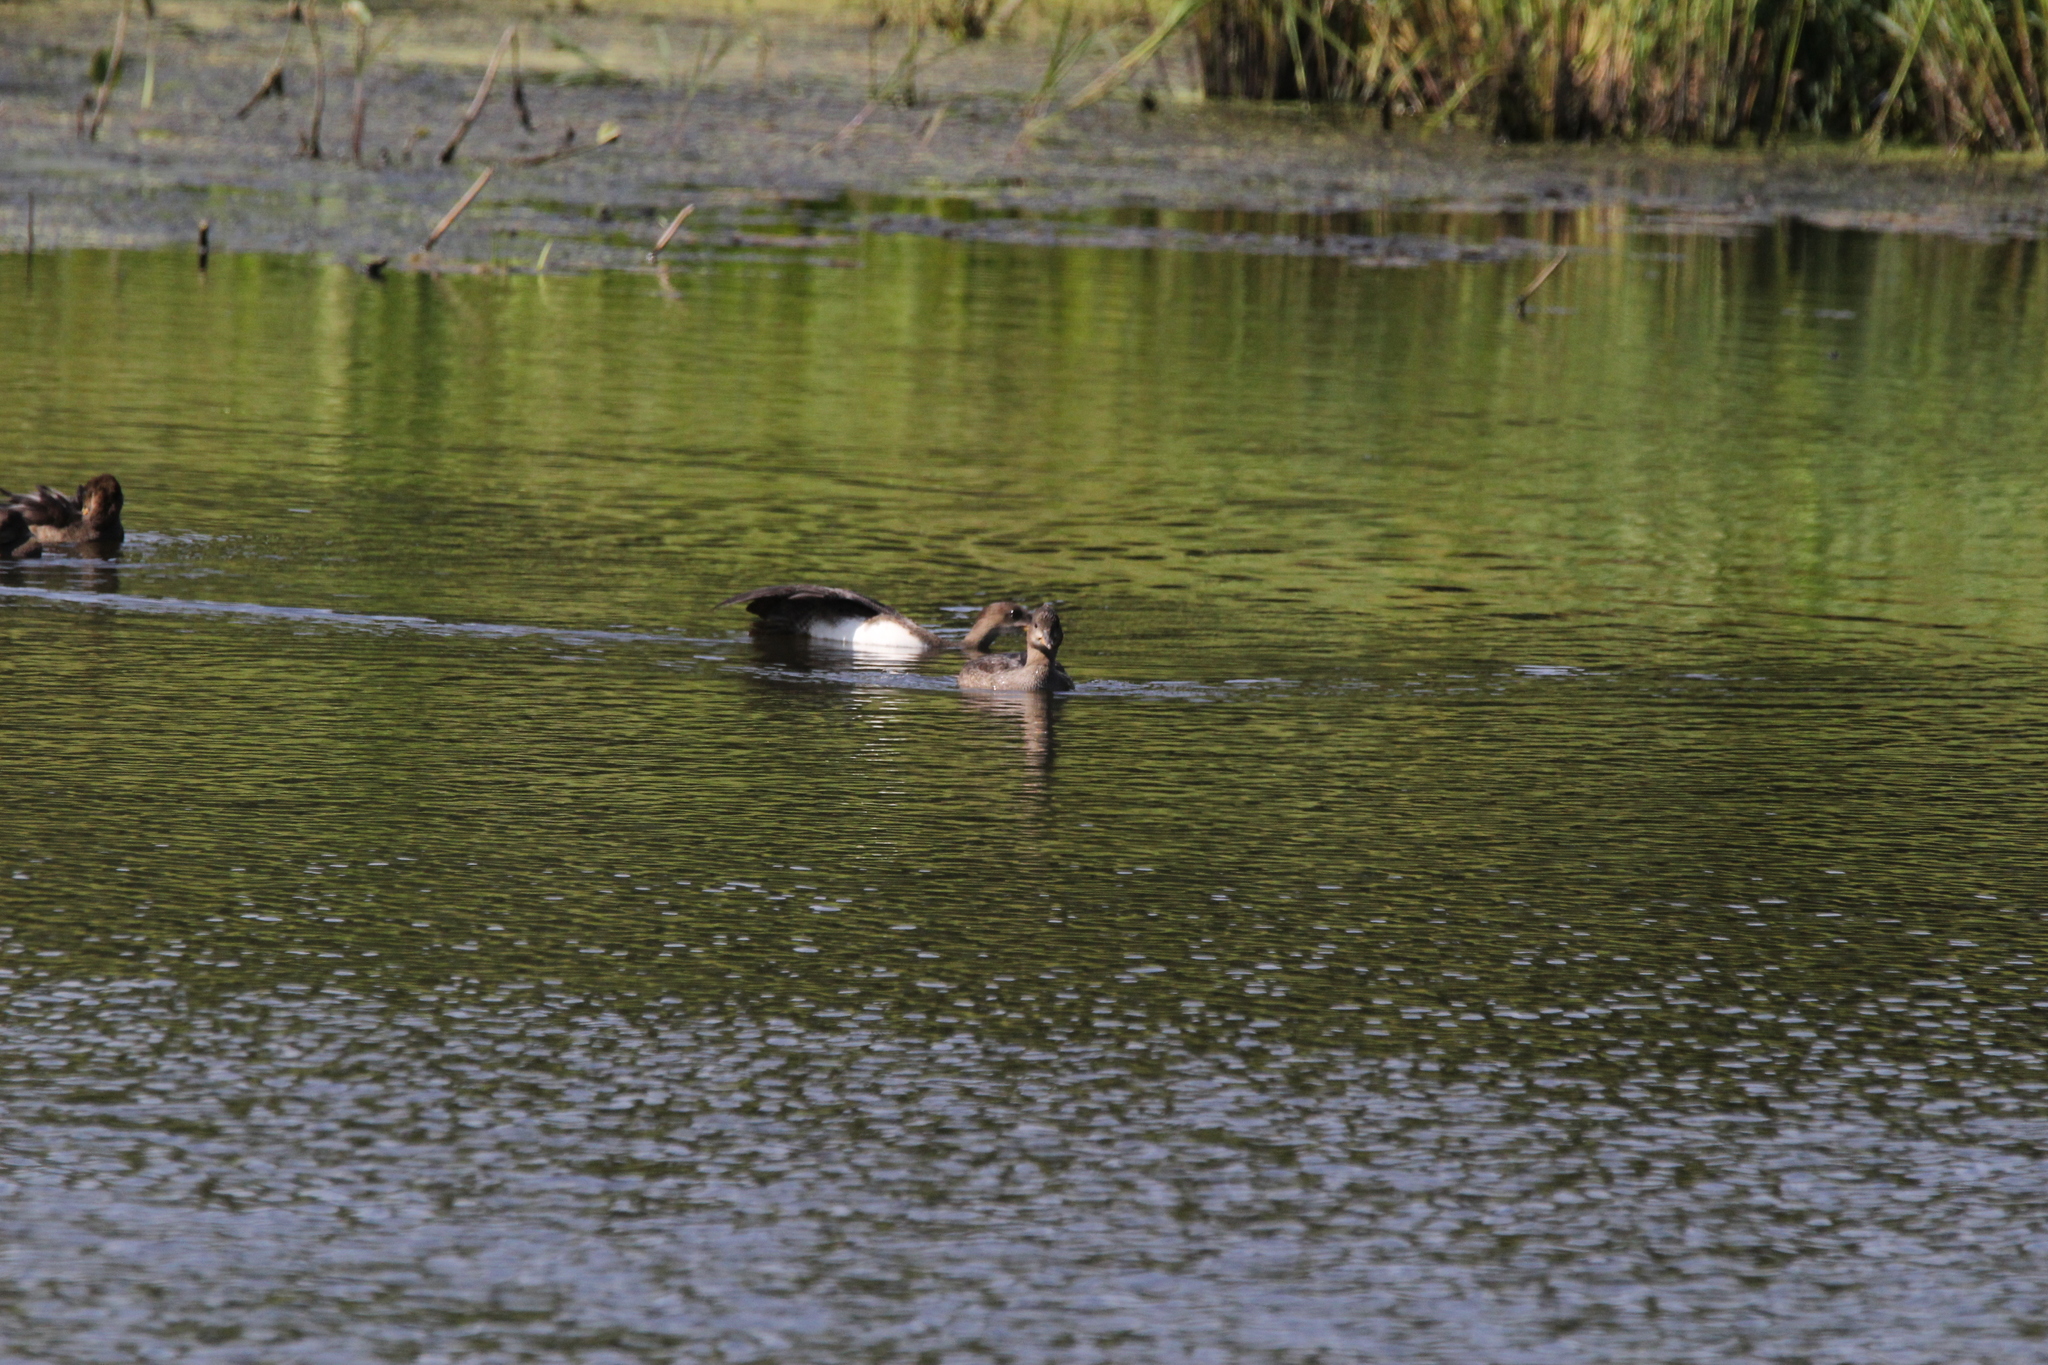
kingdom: Animalia
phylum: Chordata
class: Aves
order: Anseriformes
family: Anatidae
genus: Lophodytes
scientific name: Lophodytes cucullatus
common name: Hooded merganser
